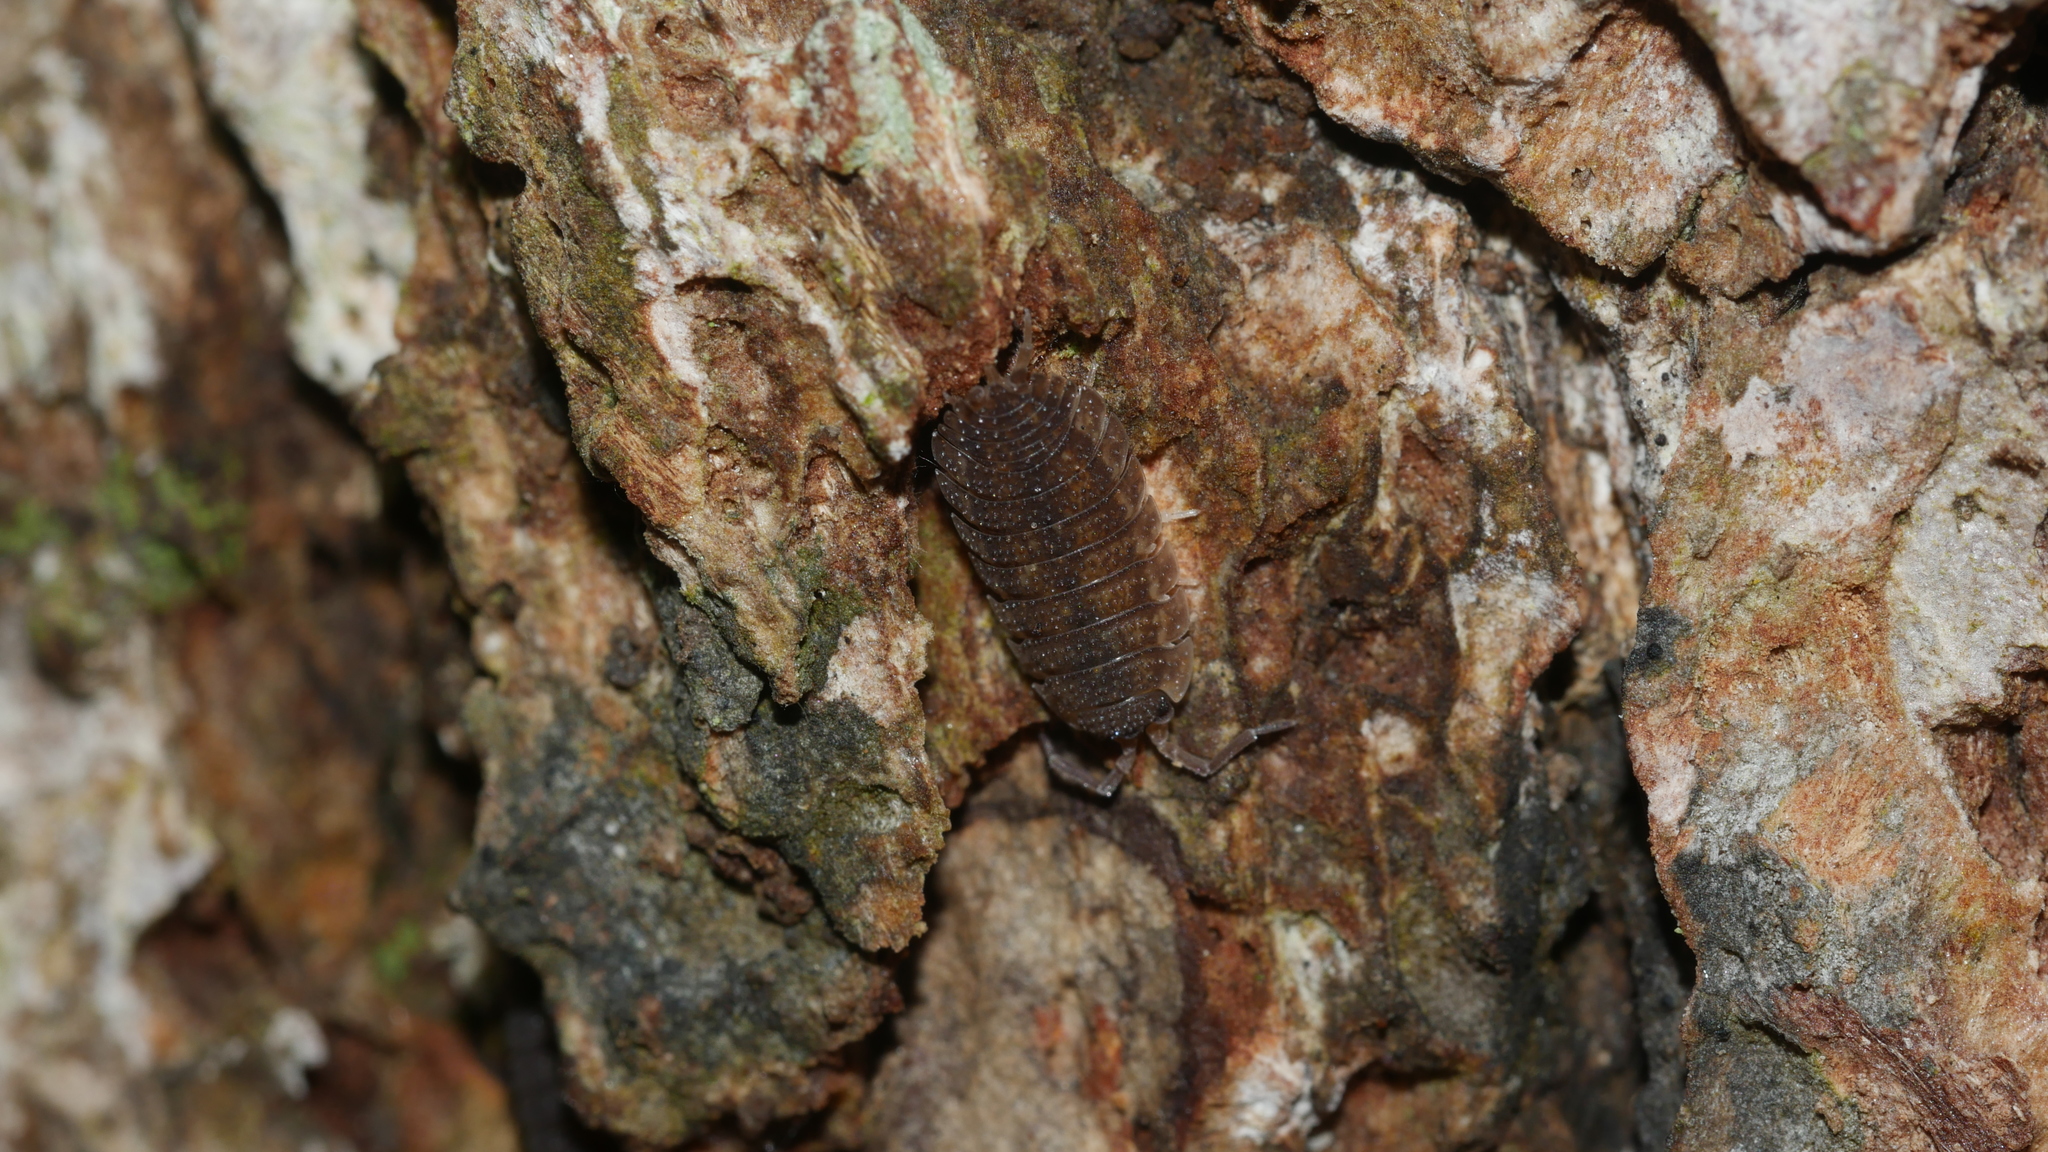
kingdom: Animalia
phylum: Arthropoda
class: Malacostraca
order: Isopoda
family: Porcellionidae
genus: Porcellio
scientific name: Porcellio scaber
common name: Common rough woodlouse
